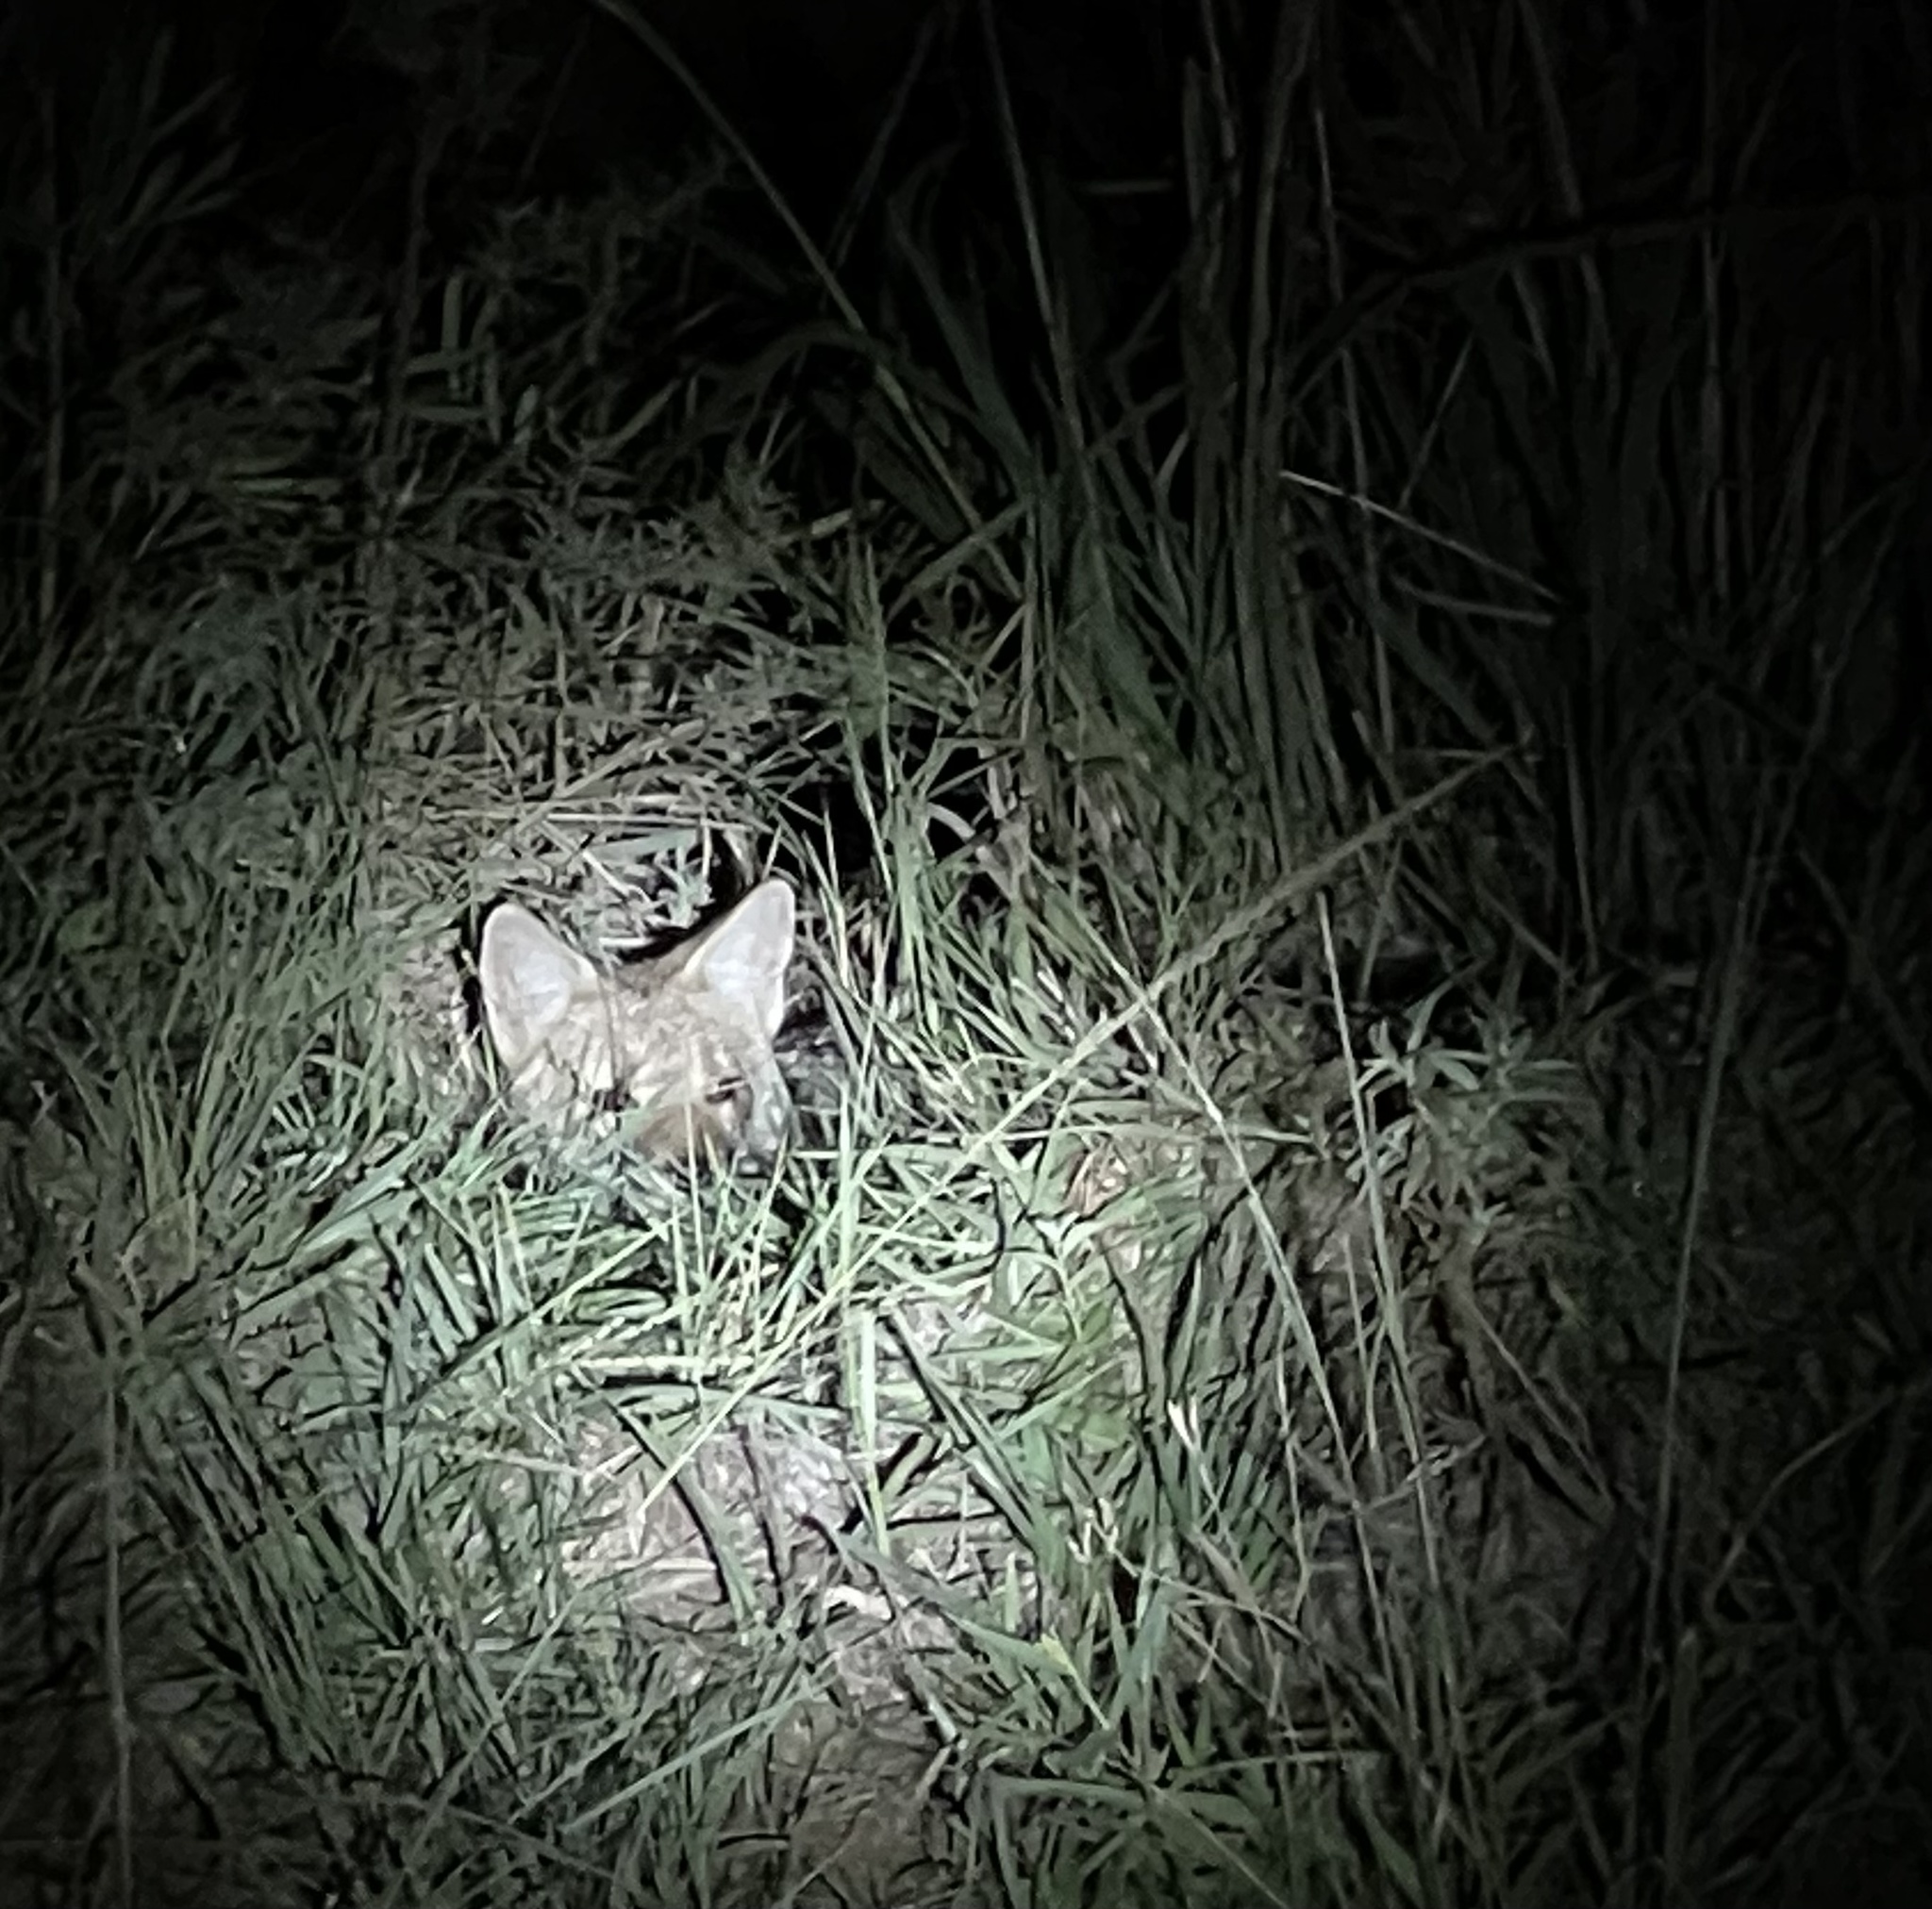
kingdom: Animalia
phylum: Chordata
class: Mammalia
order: Carnivora
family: Canidae
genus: Lycalopex
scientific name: Lycalopex gymnocercus
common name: Pampas fox
